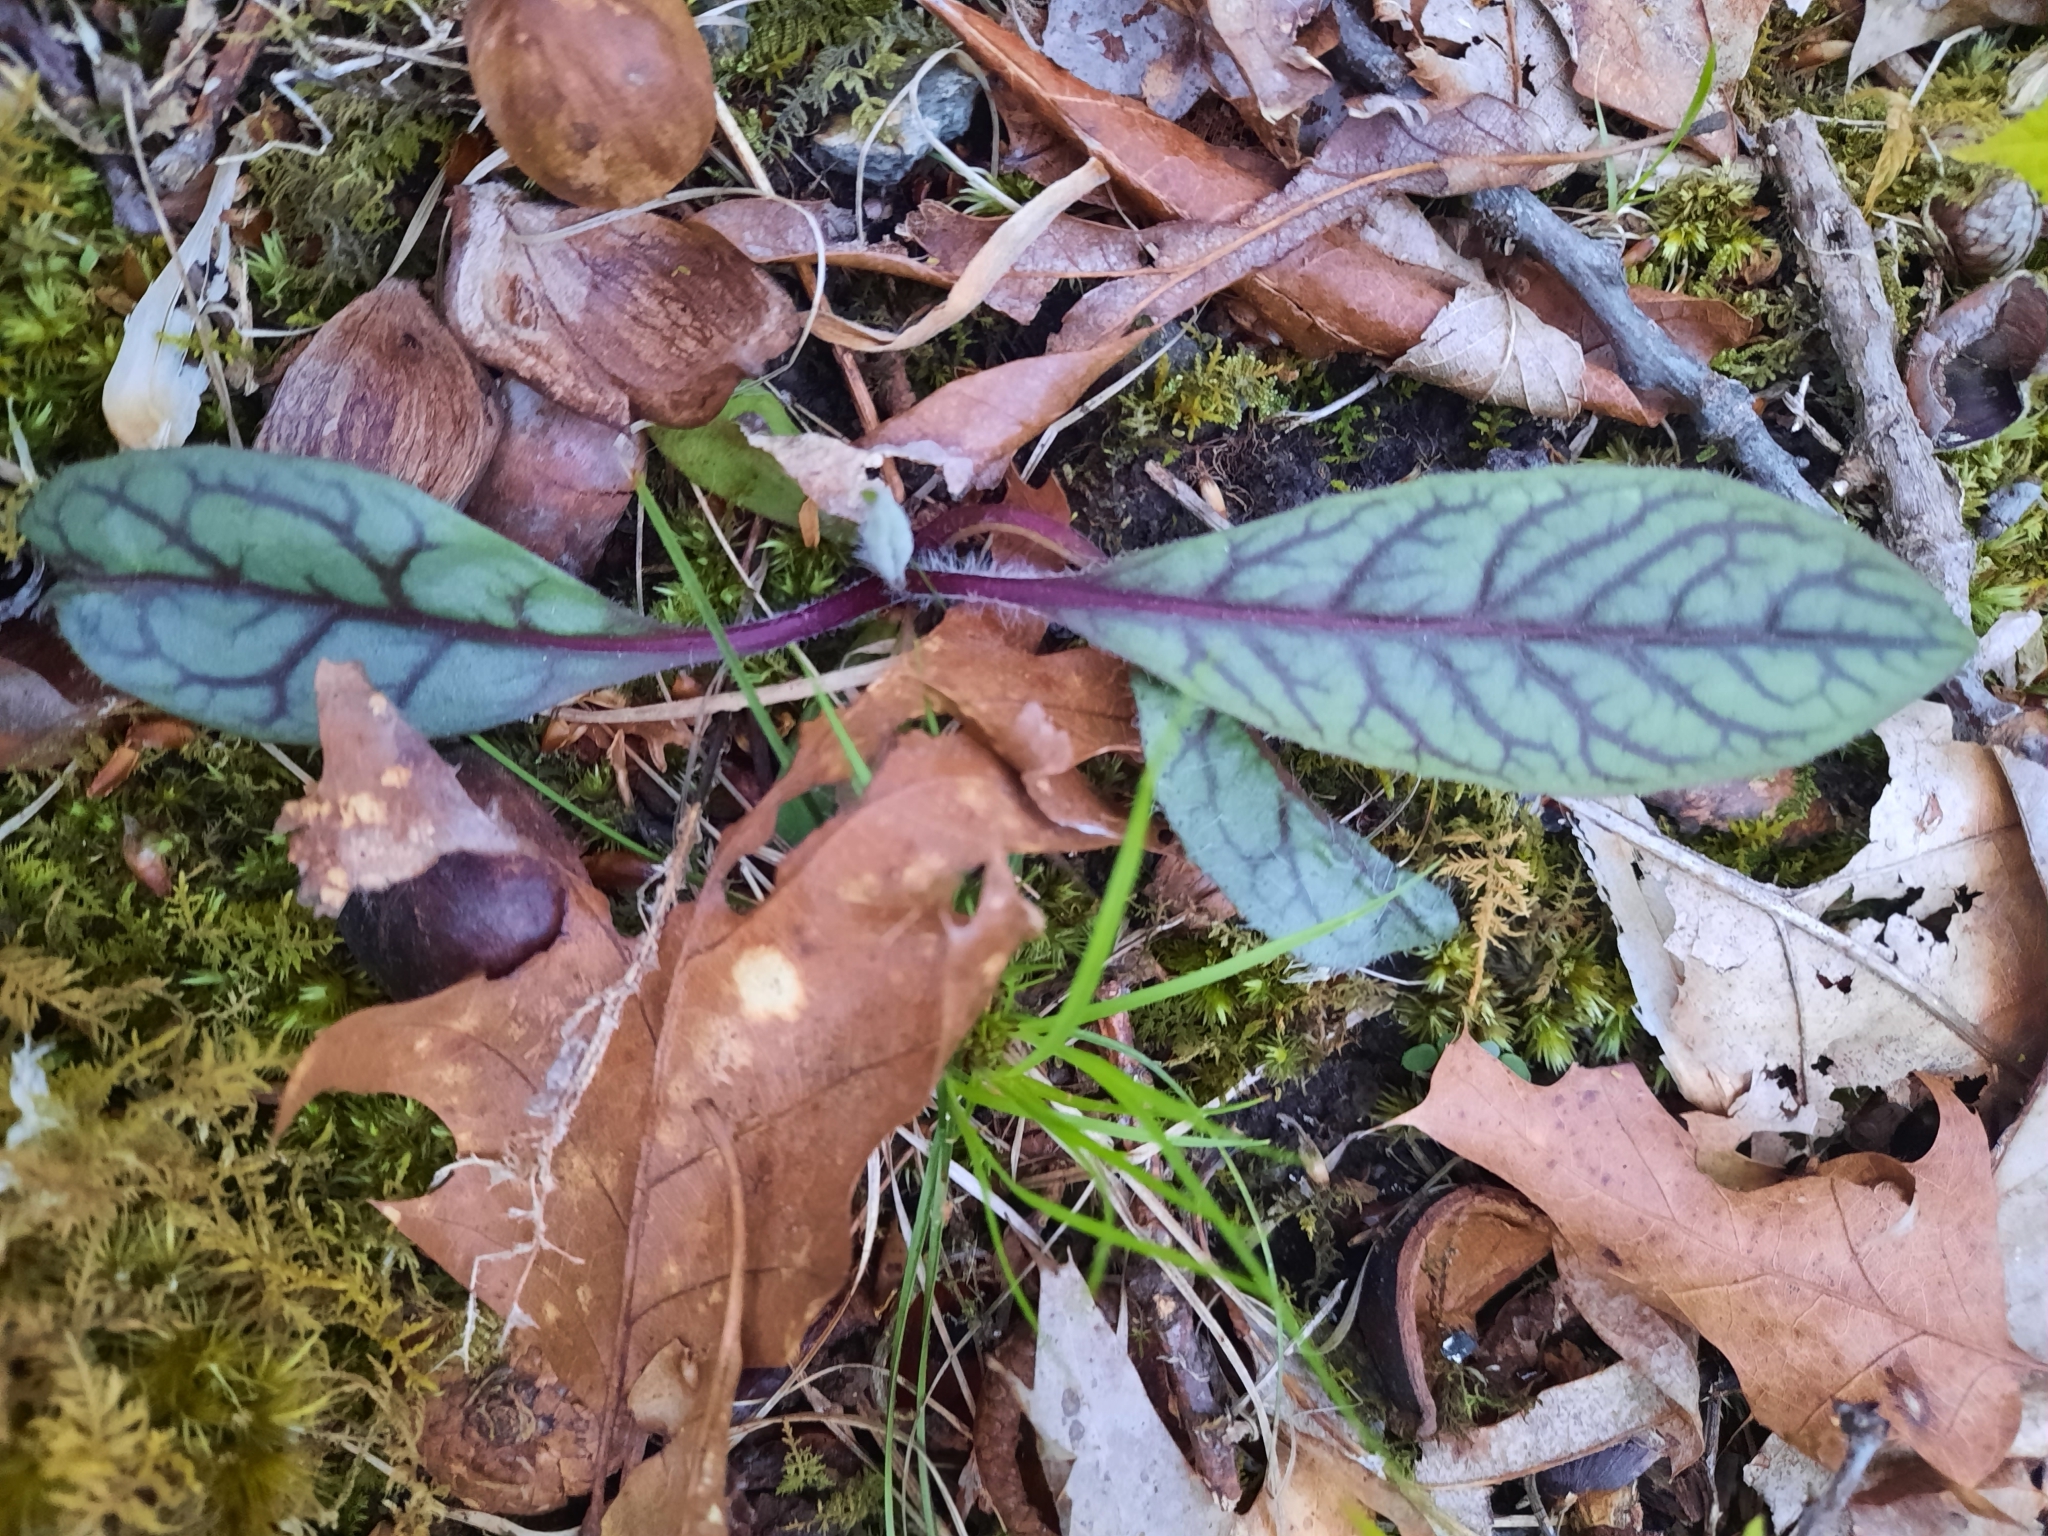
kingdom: Plantae
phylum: Tracheophyta
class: Magnoliopsida
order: Asterales
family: Asteraceae
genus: Hieracium
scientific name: Hieracium venosum
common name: Rattlesnake hawkweed
